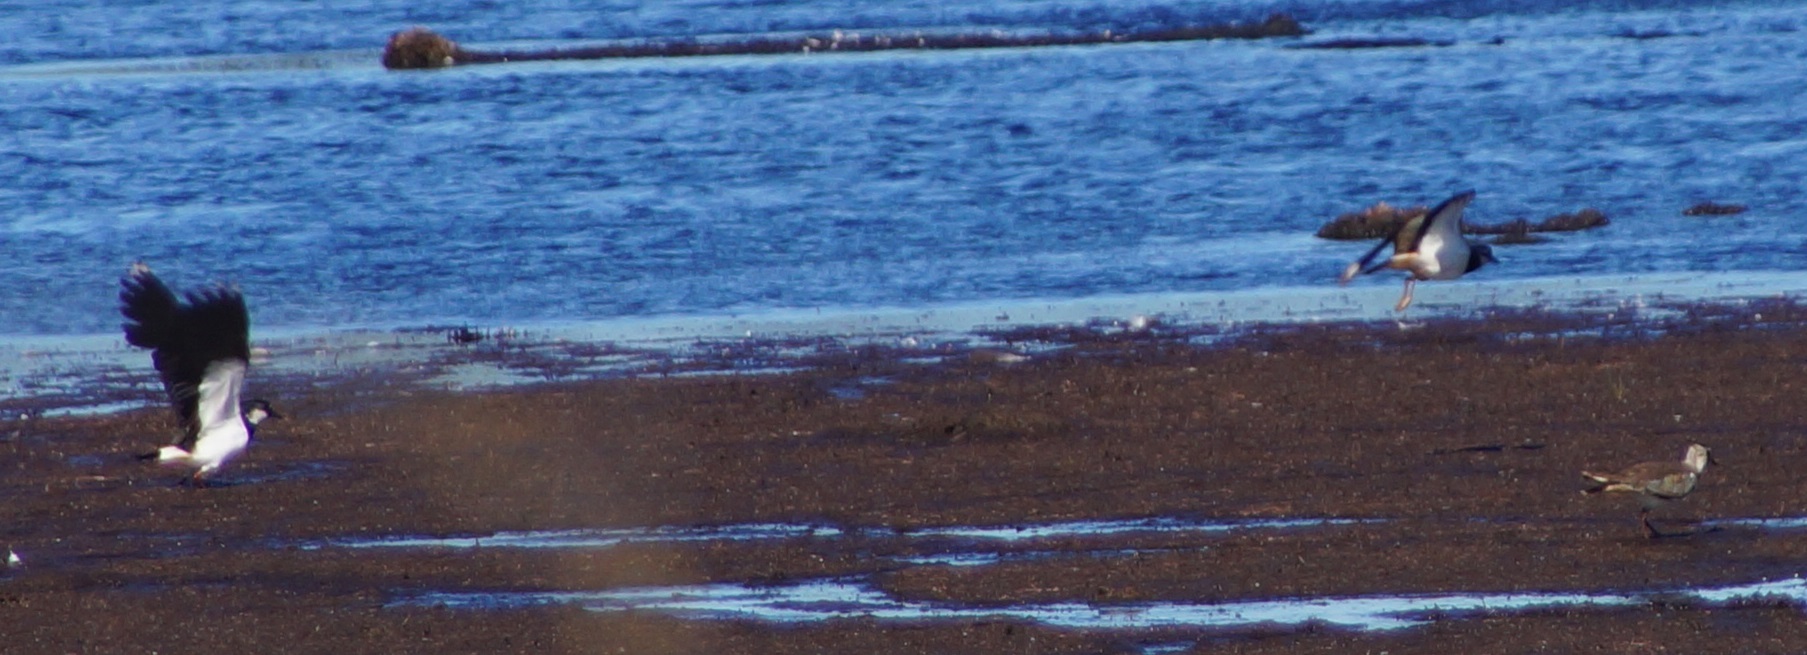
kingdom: Animalia
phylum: Chordata
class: Aves
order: Charadriiformes
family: Charadriidae
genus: Vanellus
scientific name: Vanellus vanellus
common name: Northern lapwing
